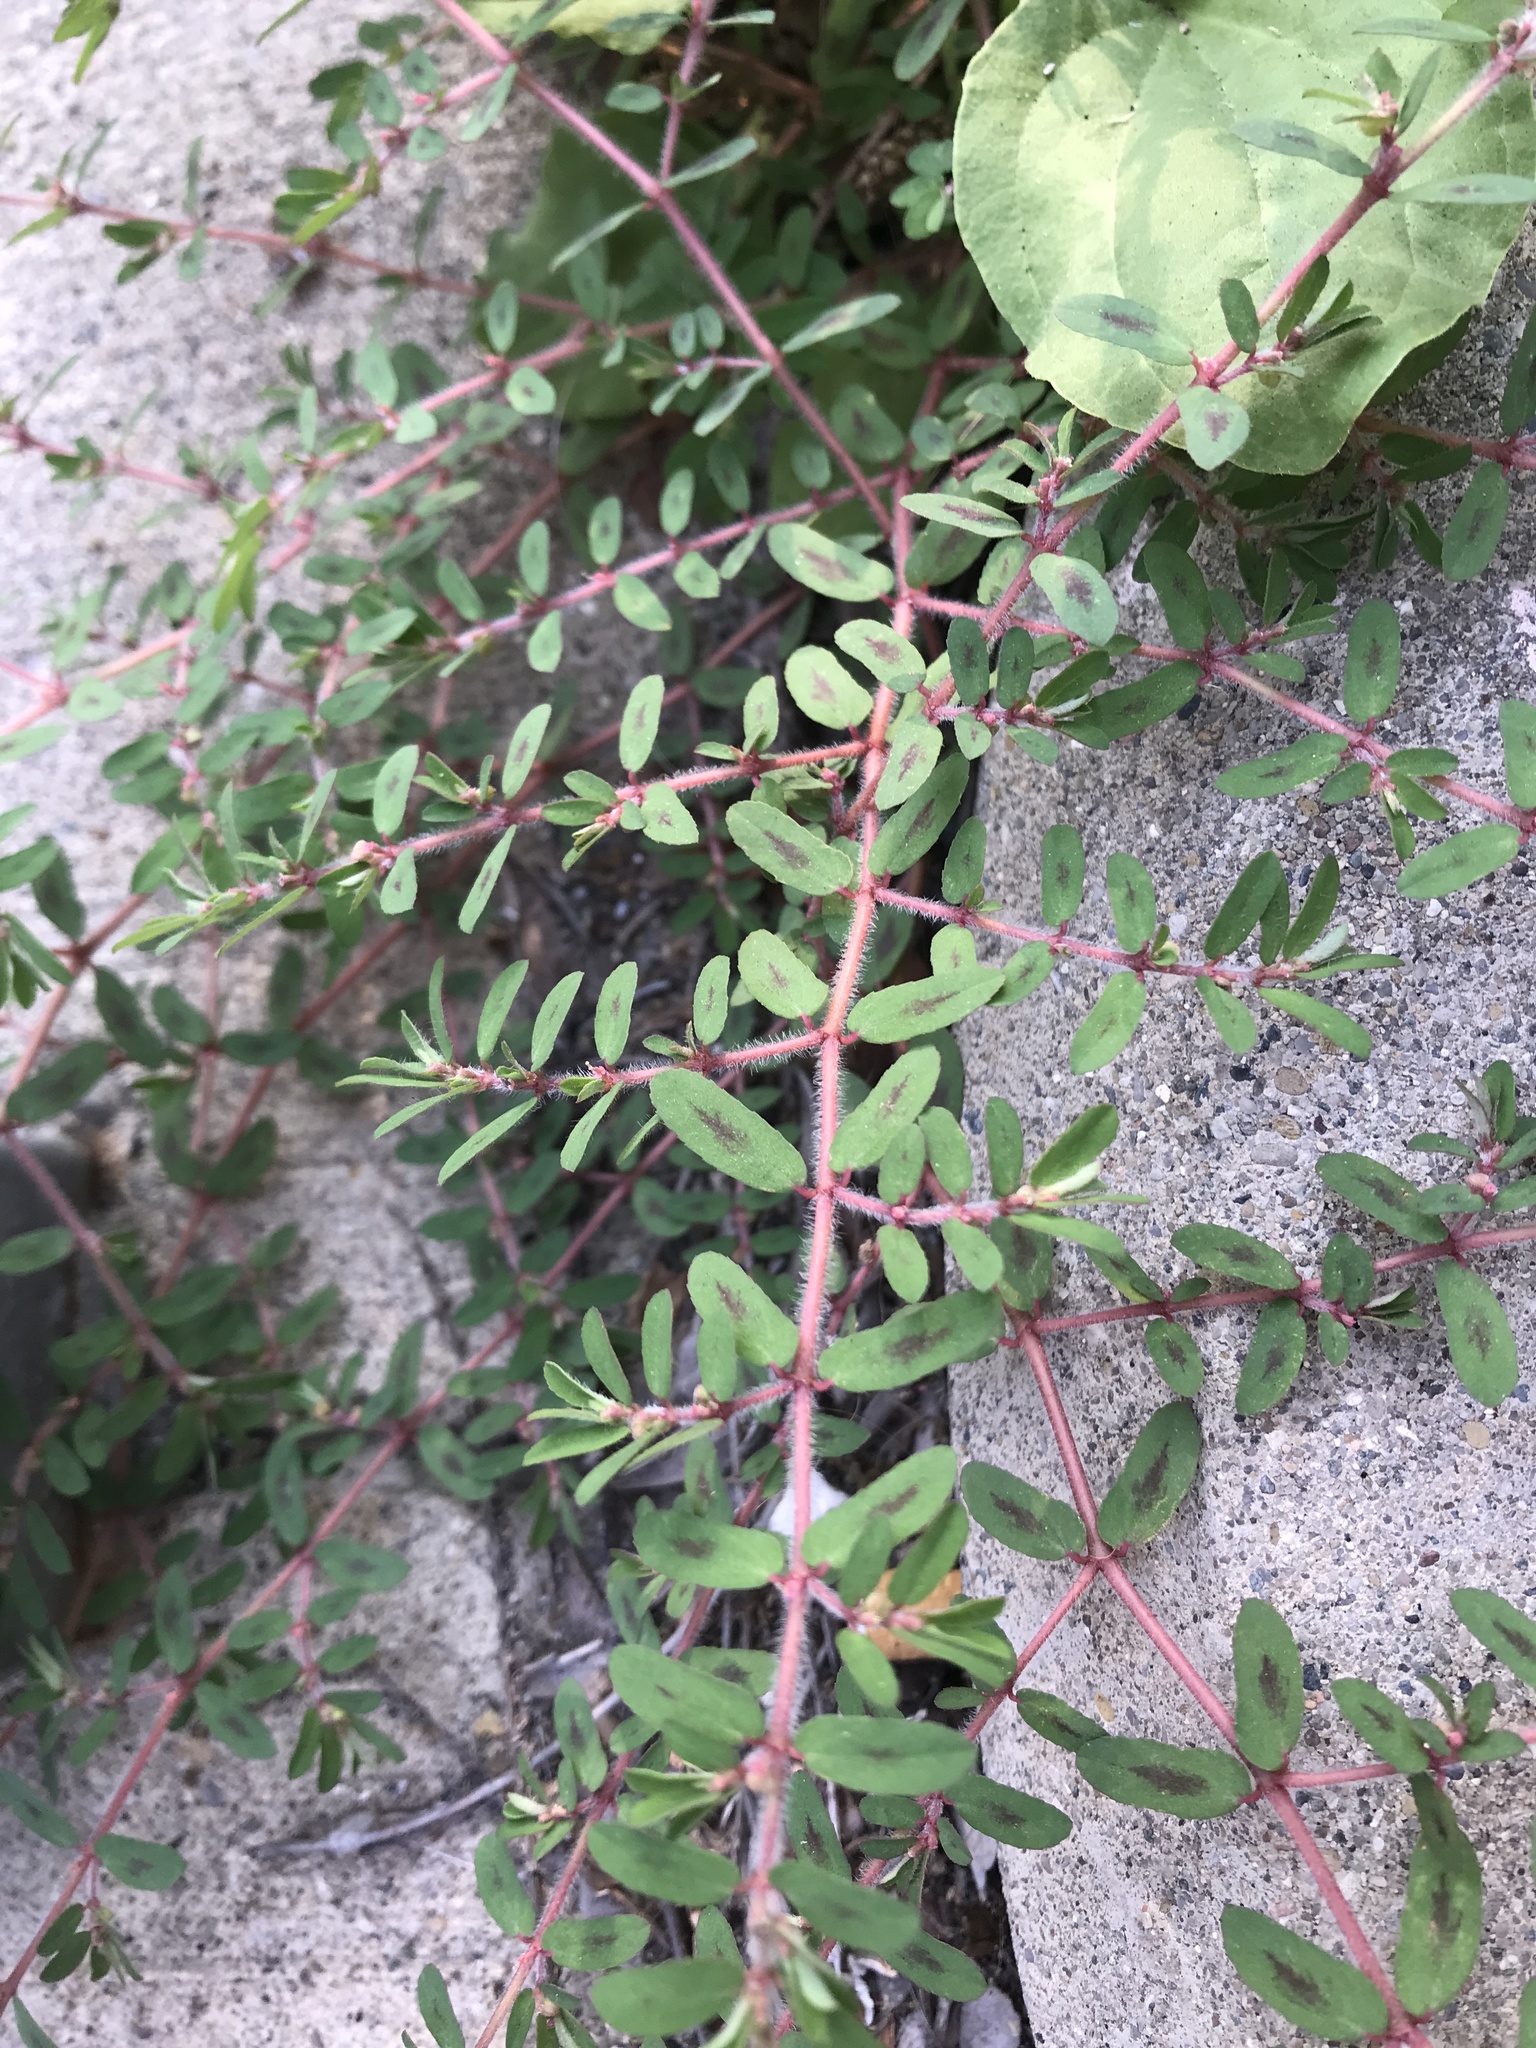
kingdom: Plantae
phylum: Tracheophyta
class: Magnoliopsida
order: Malpighiales
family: Euphorbiaceae
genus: Euphorbia
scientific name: Euphorbia maculata
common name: Spotted spurge
